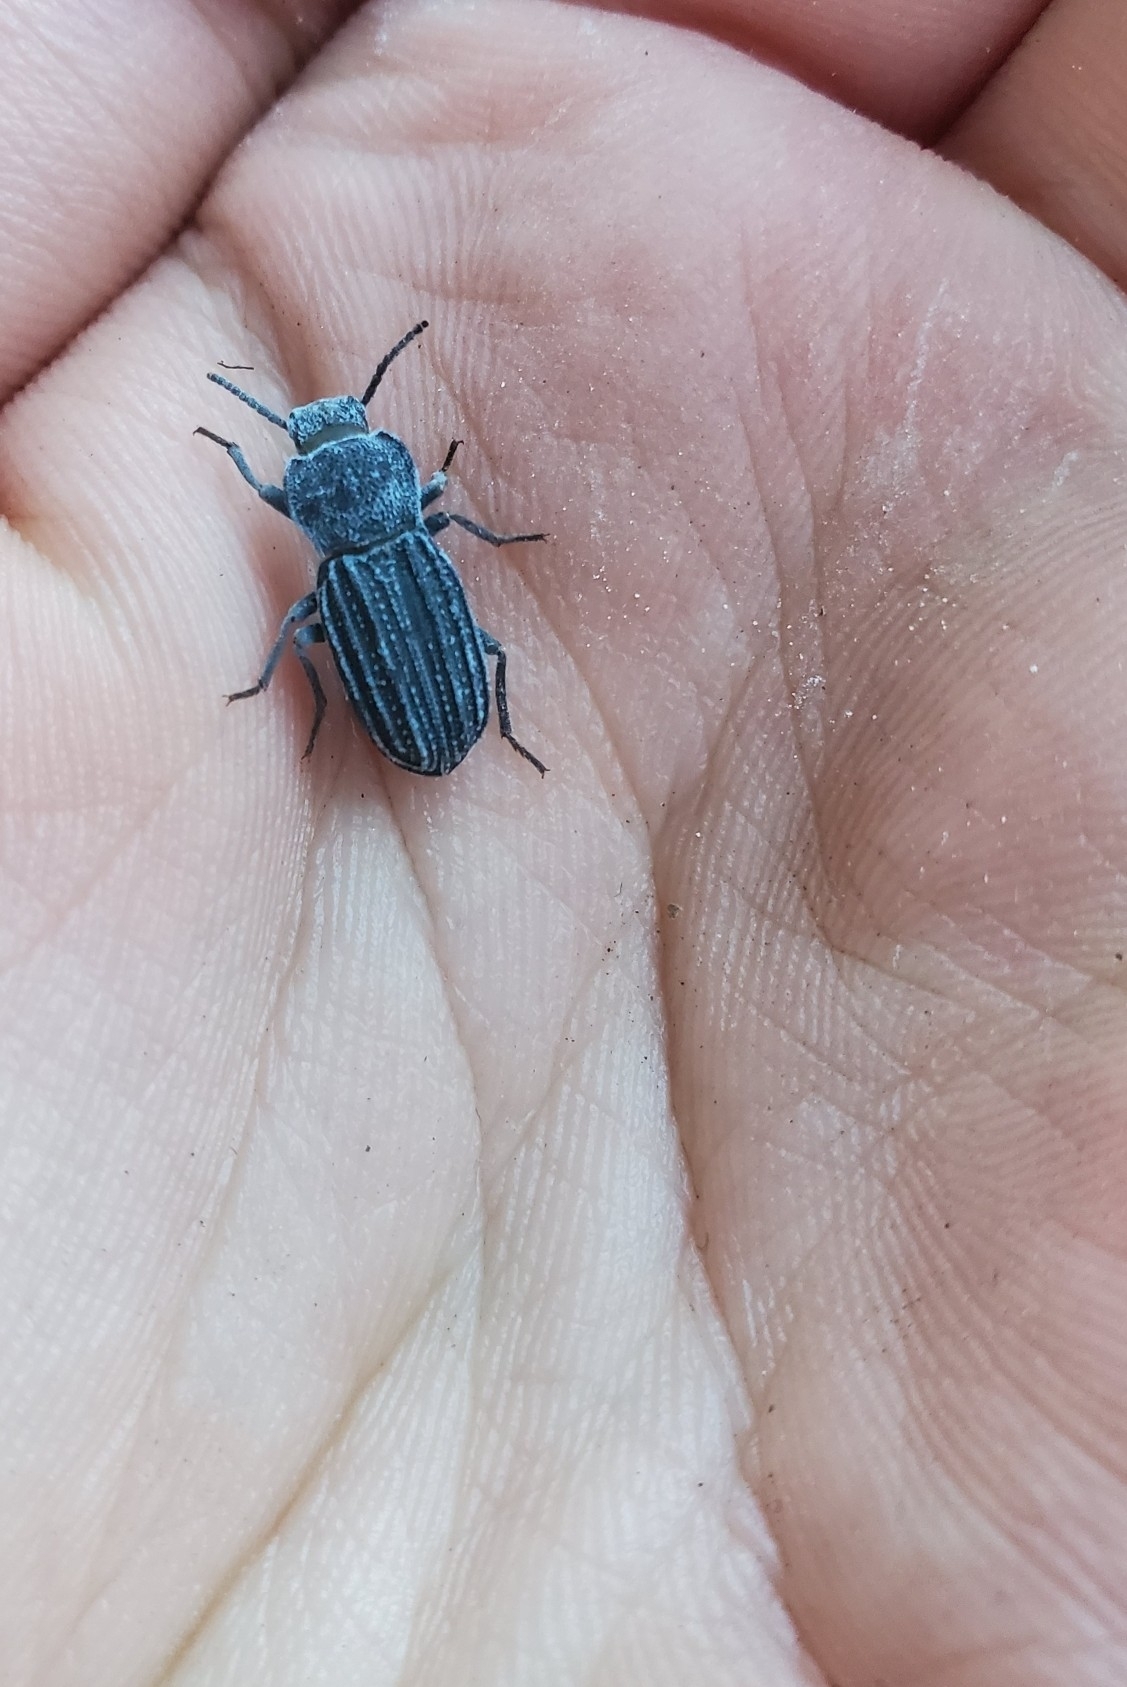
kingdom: Animalia
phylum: Arthropoda
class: Insecta
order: Coleoptera
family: Tenebrionidae
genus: Nyctoporis
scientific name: Nyctoporis carinata
